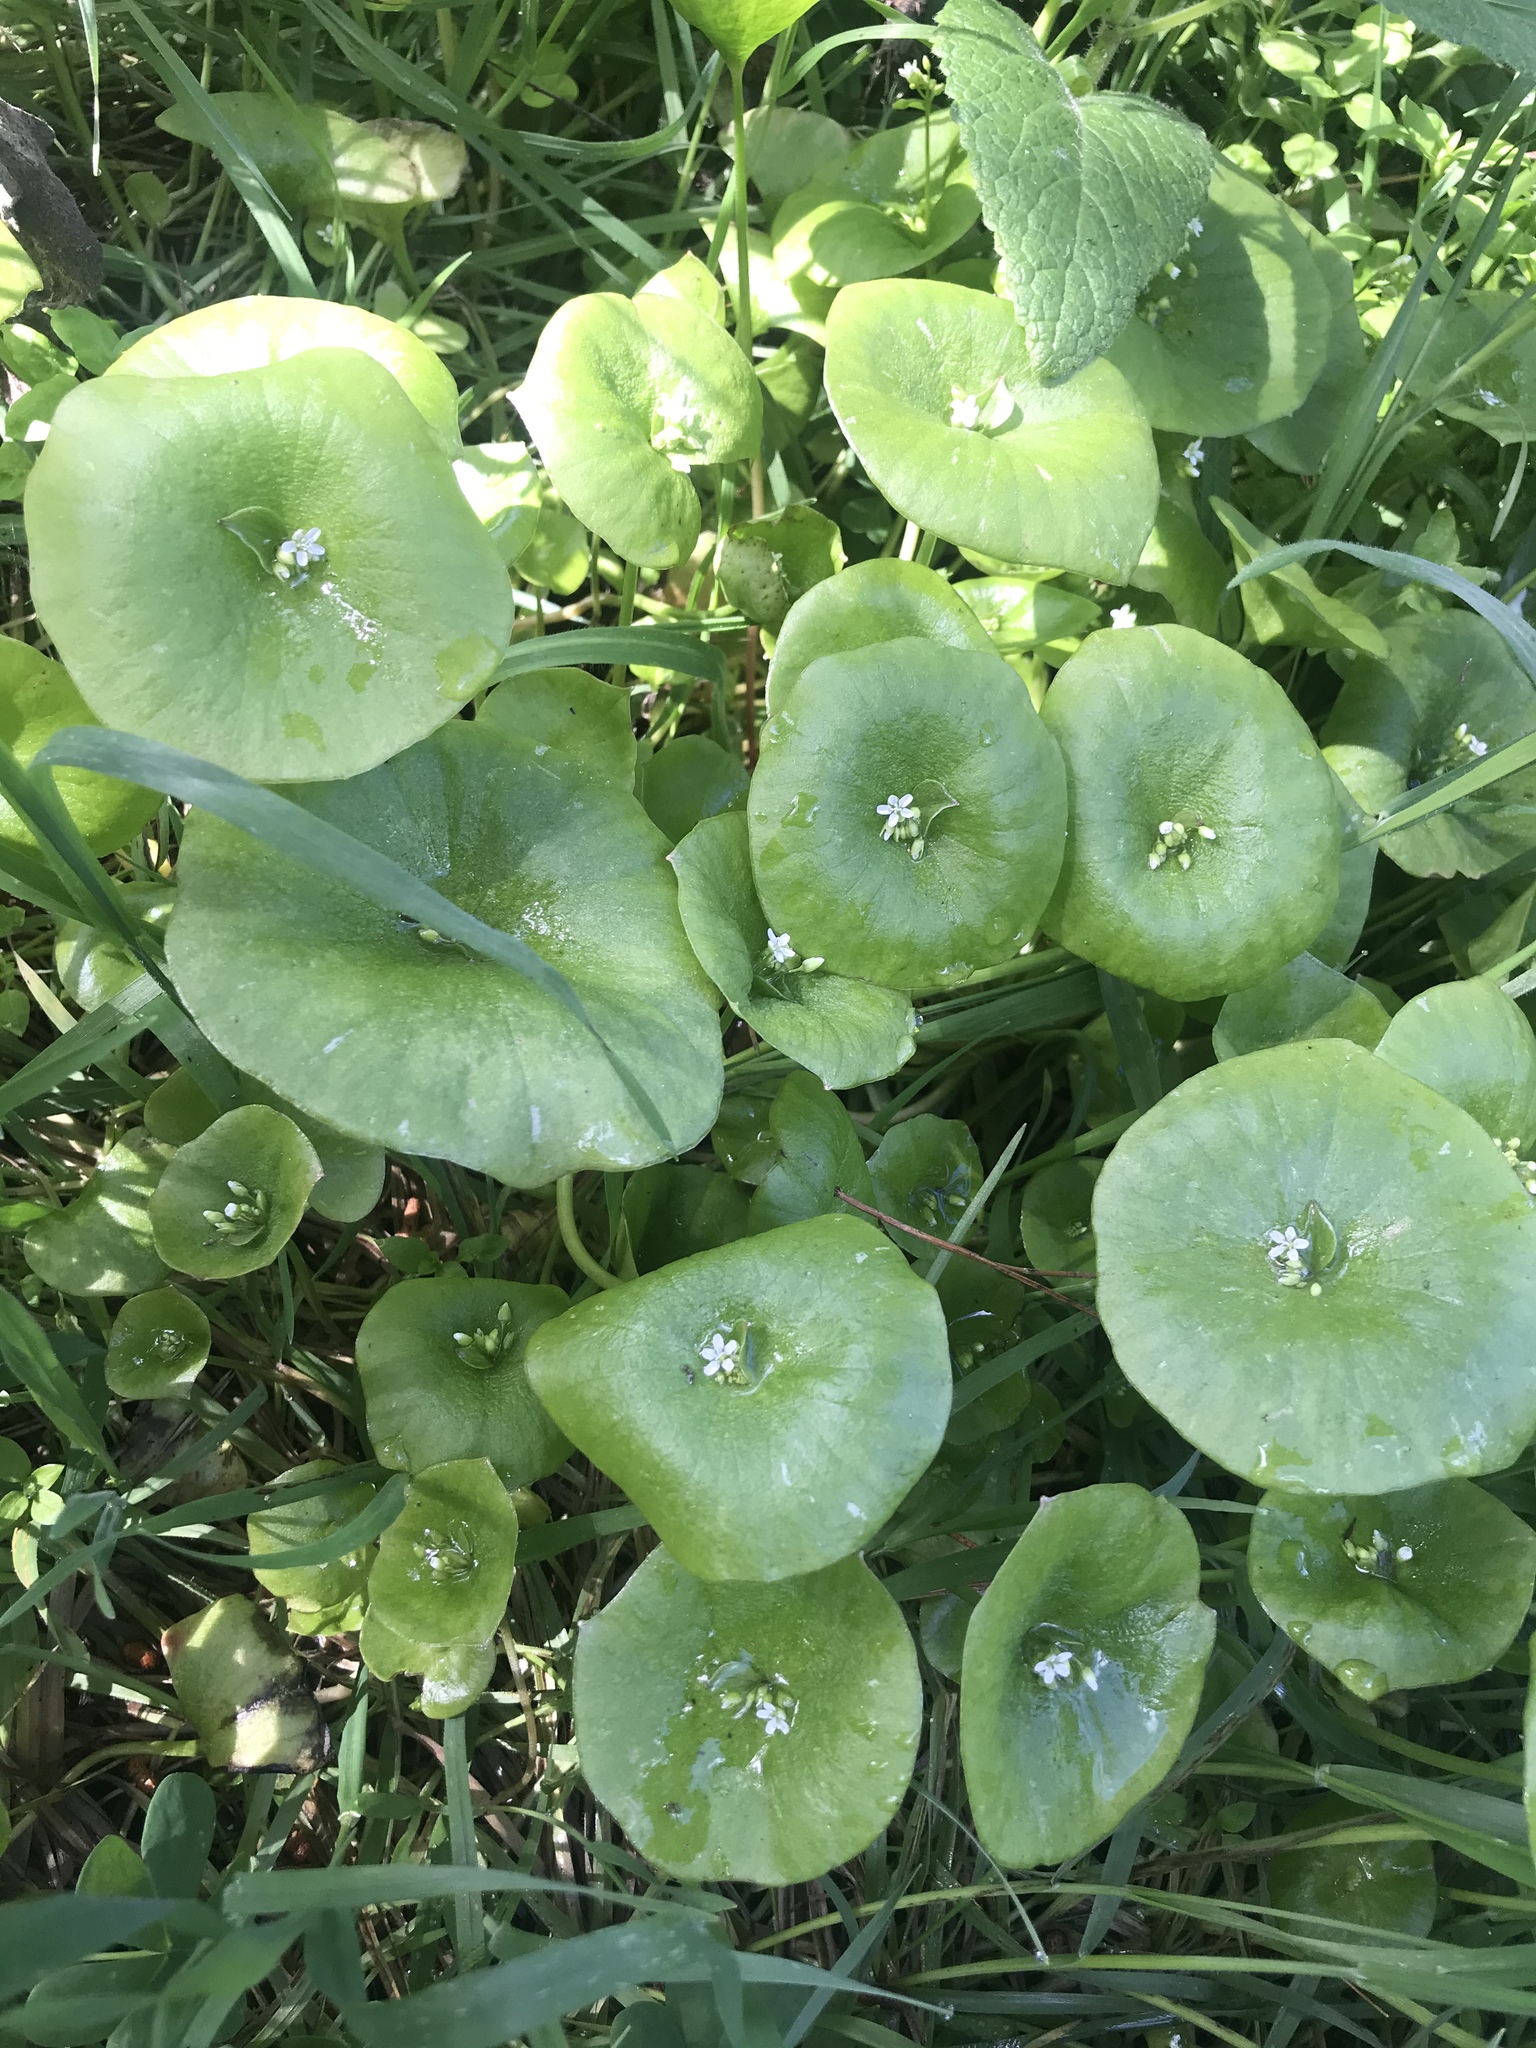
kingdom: Plantae
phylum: Tracheophyta
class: Magnoliopsida
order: Caryophyllales
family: Montiaceae
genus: Claytonia
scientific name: Claytonia perfoliata
